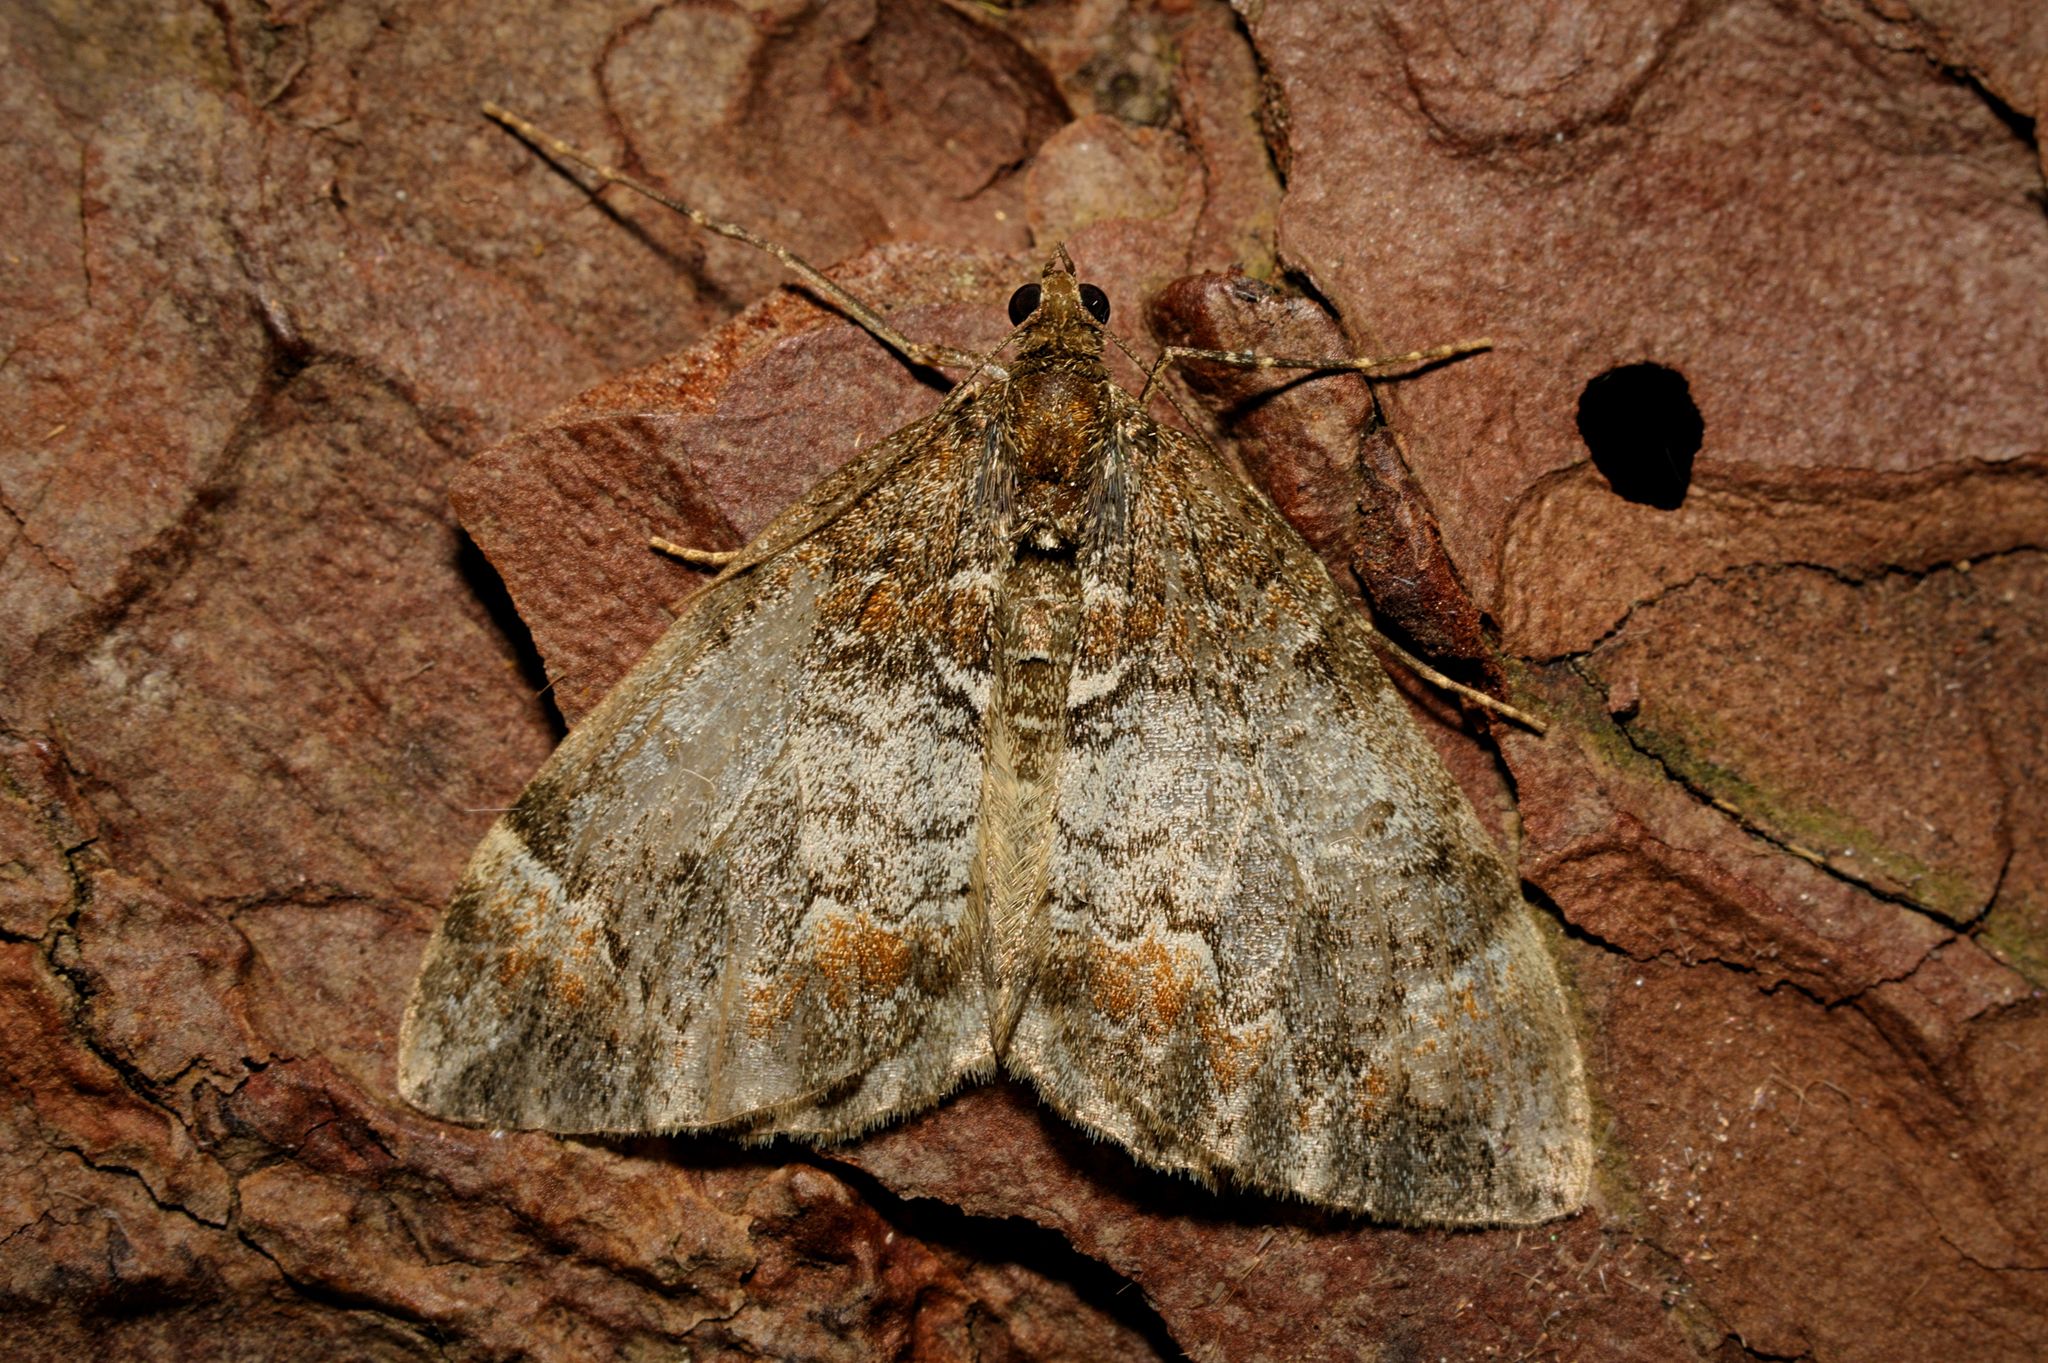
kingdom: Animalia
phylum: Arthropoda
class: Insecta
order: Lepidoptera
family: Geometridae
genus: Dysstroma
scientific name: Dysstroma citrata
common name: Dark marbled carpet
